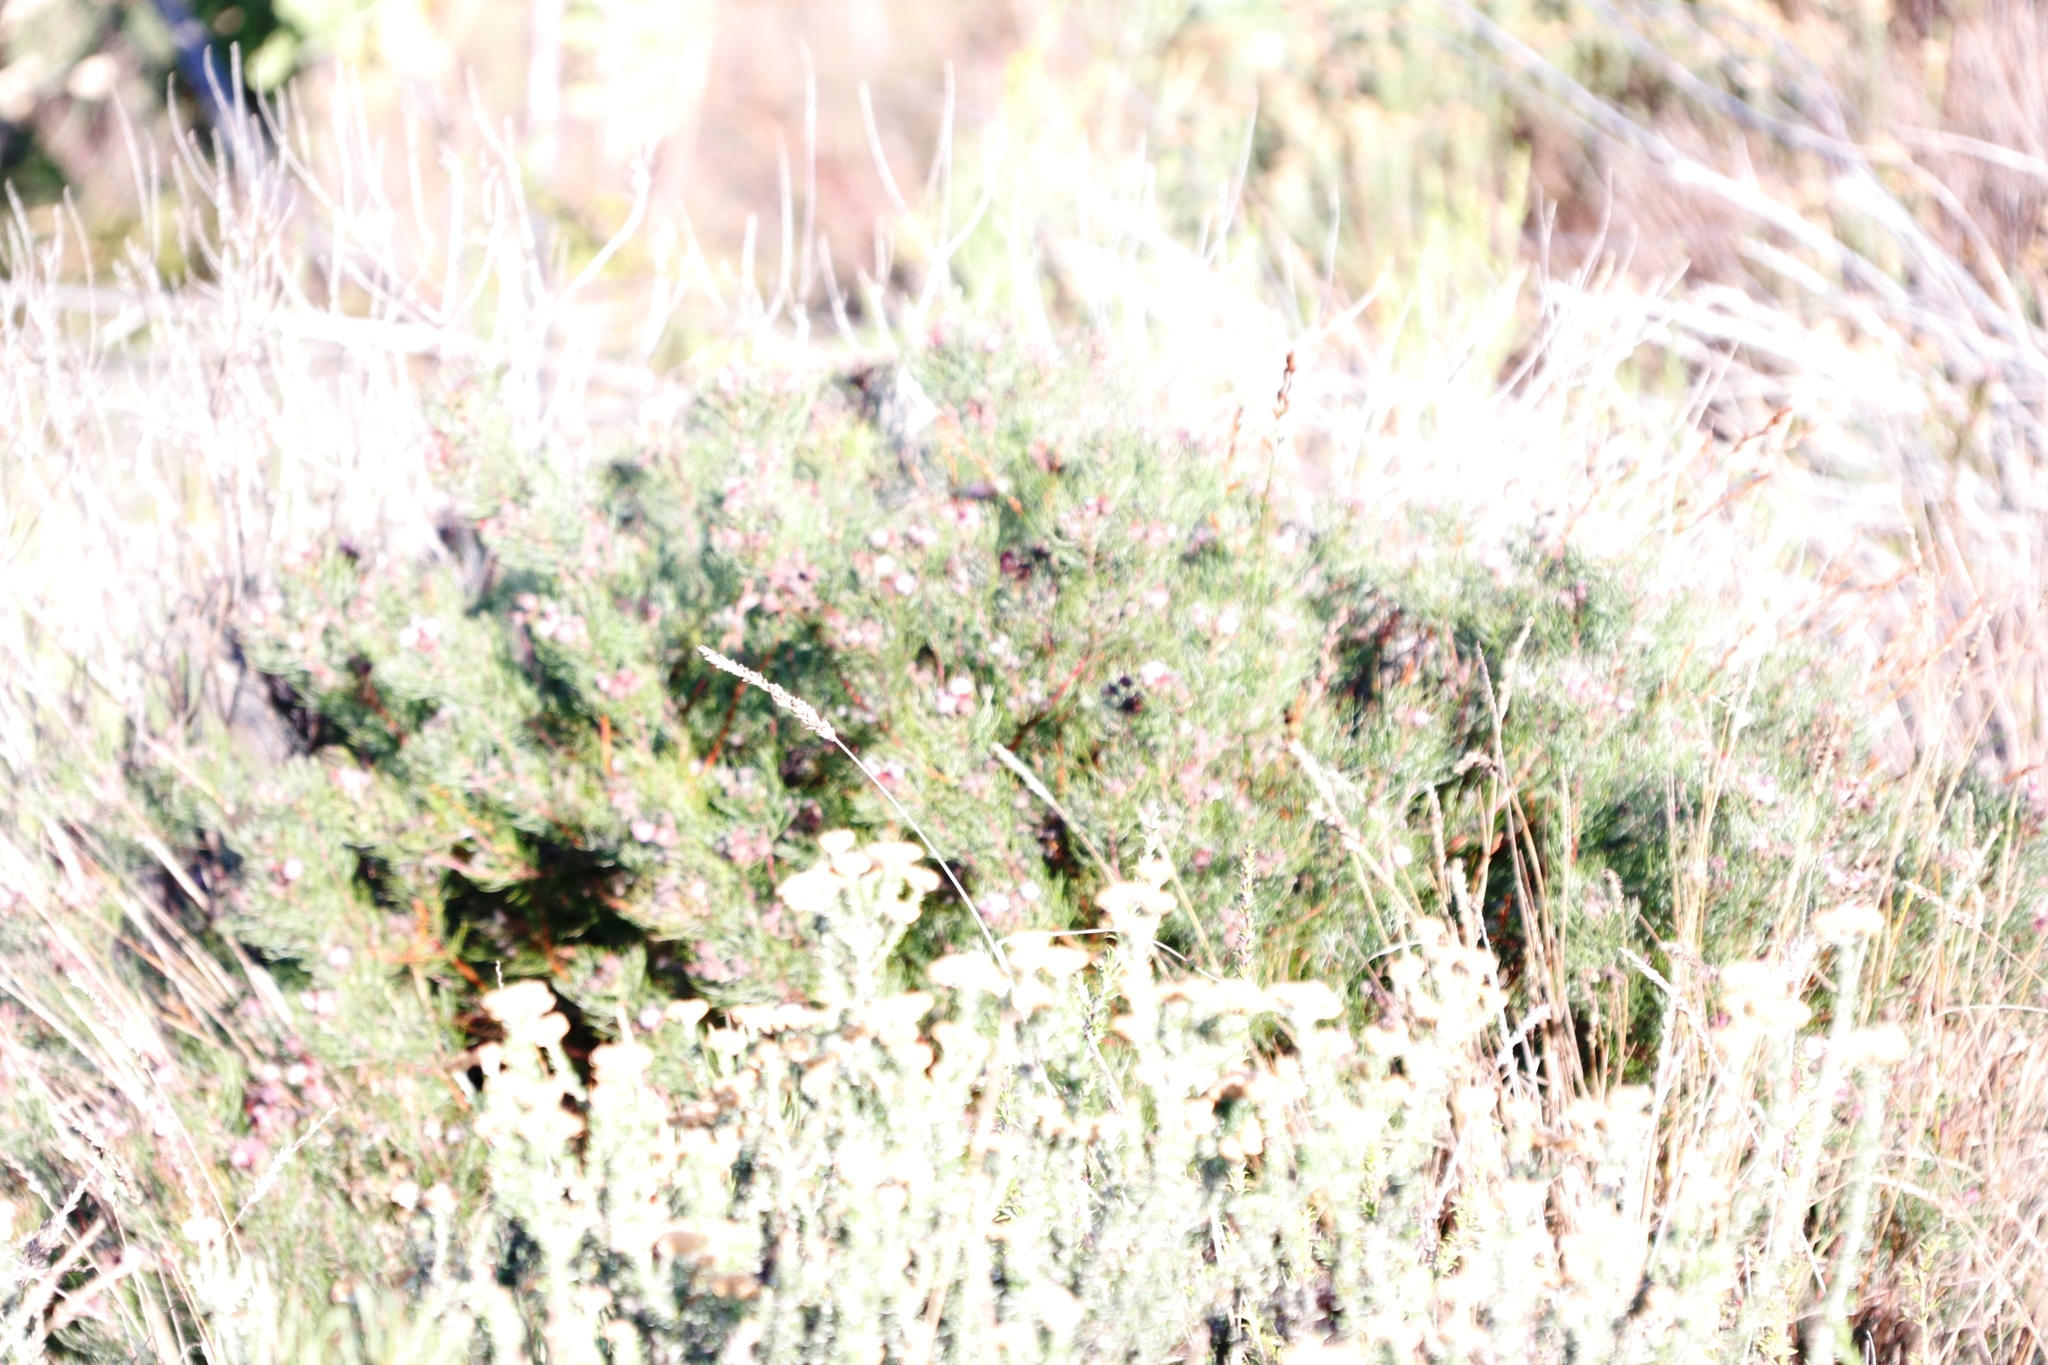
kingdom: Plantae
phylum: Tracheophyta
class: Magnoliopsida
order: Proteales
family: Proteaceae
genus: Serruria
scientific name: Serruria fasciflora
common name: Common pin spiderhead
